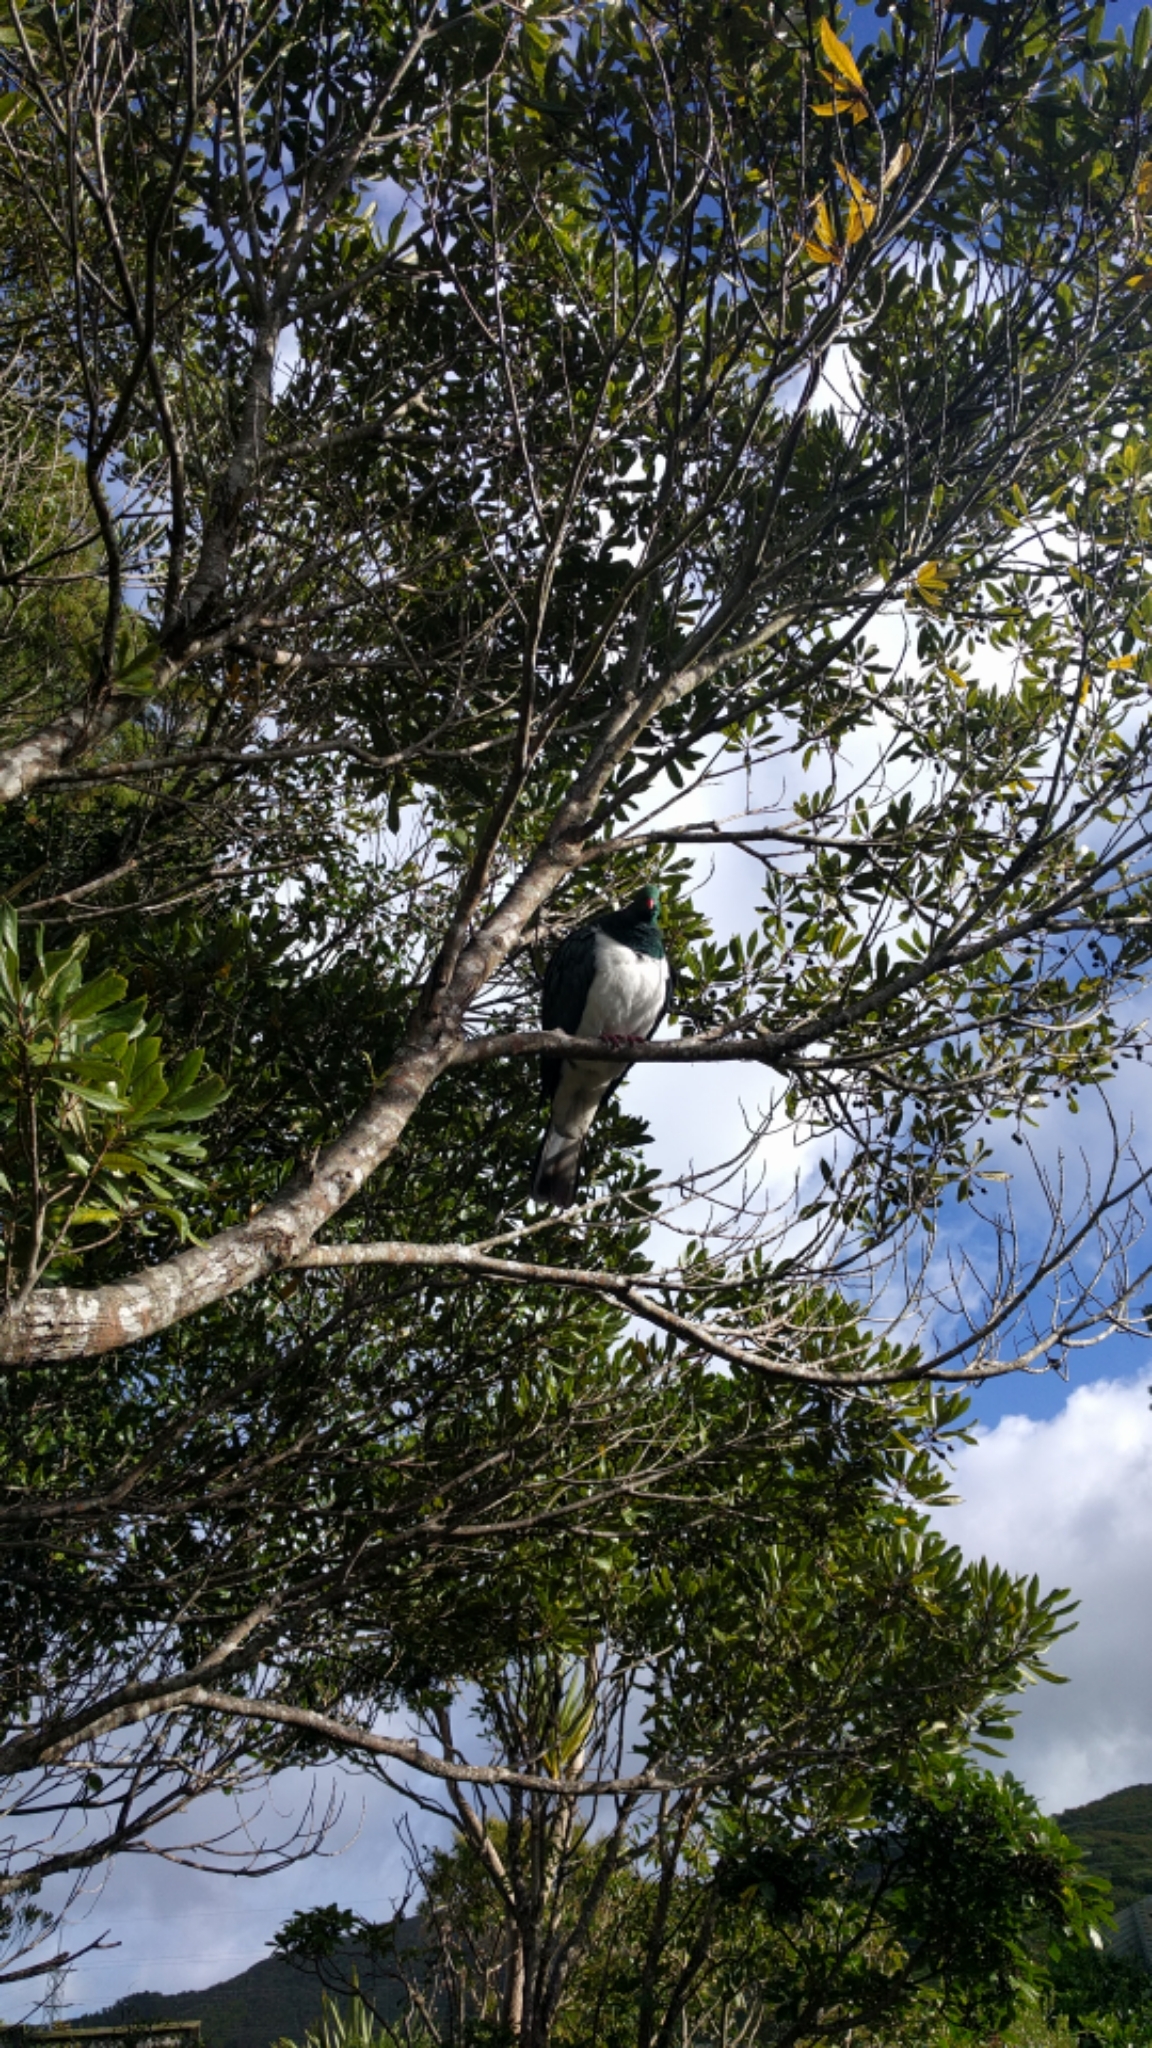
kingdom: Animalia
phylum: Chordata
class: Aves
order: Columbiformes
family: Columbidae
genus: Hemiphaga
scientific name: Hemiphaga novaeseelandiae
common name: New zealand pigeon
